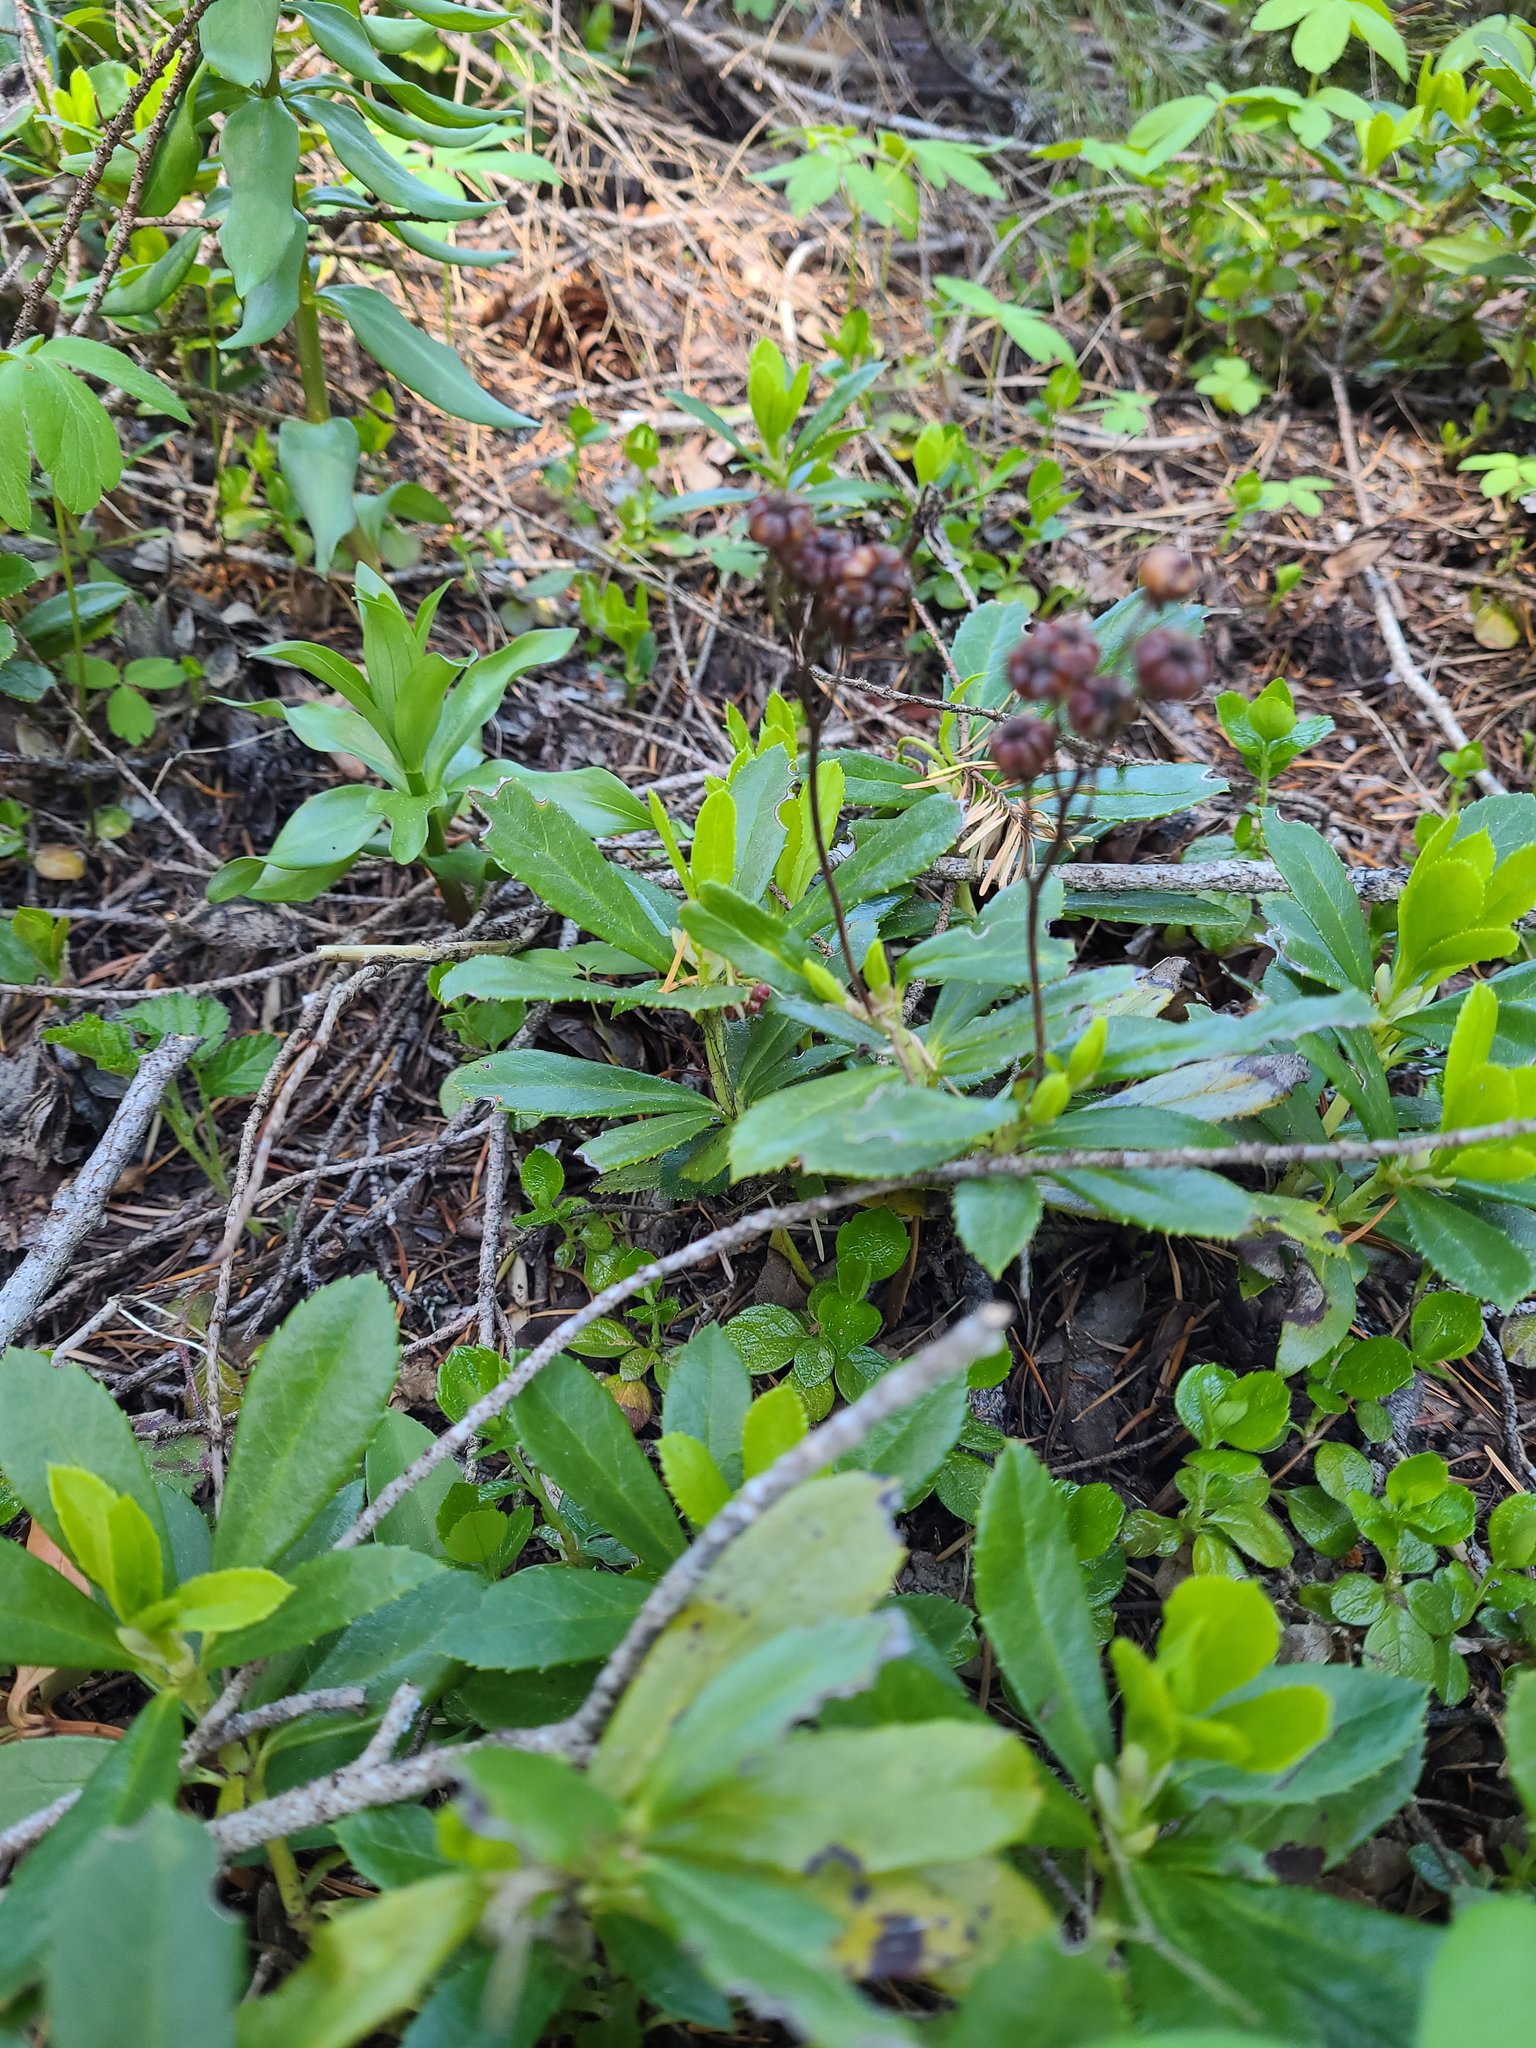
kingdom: Plantae
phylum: Tracheophyta
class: Magnoliopsida
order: Ericales
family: Ericaceae
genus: Chimaphila
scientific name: Chimaphila umbellata
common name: Pipsissewa
